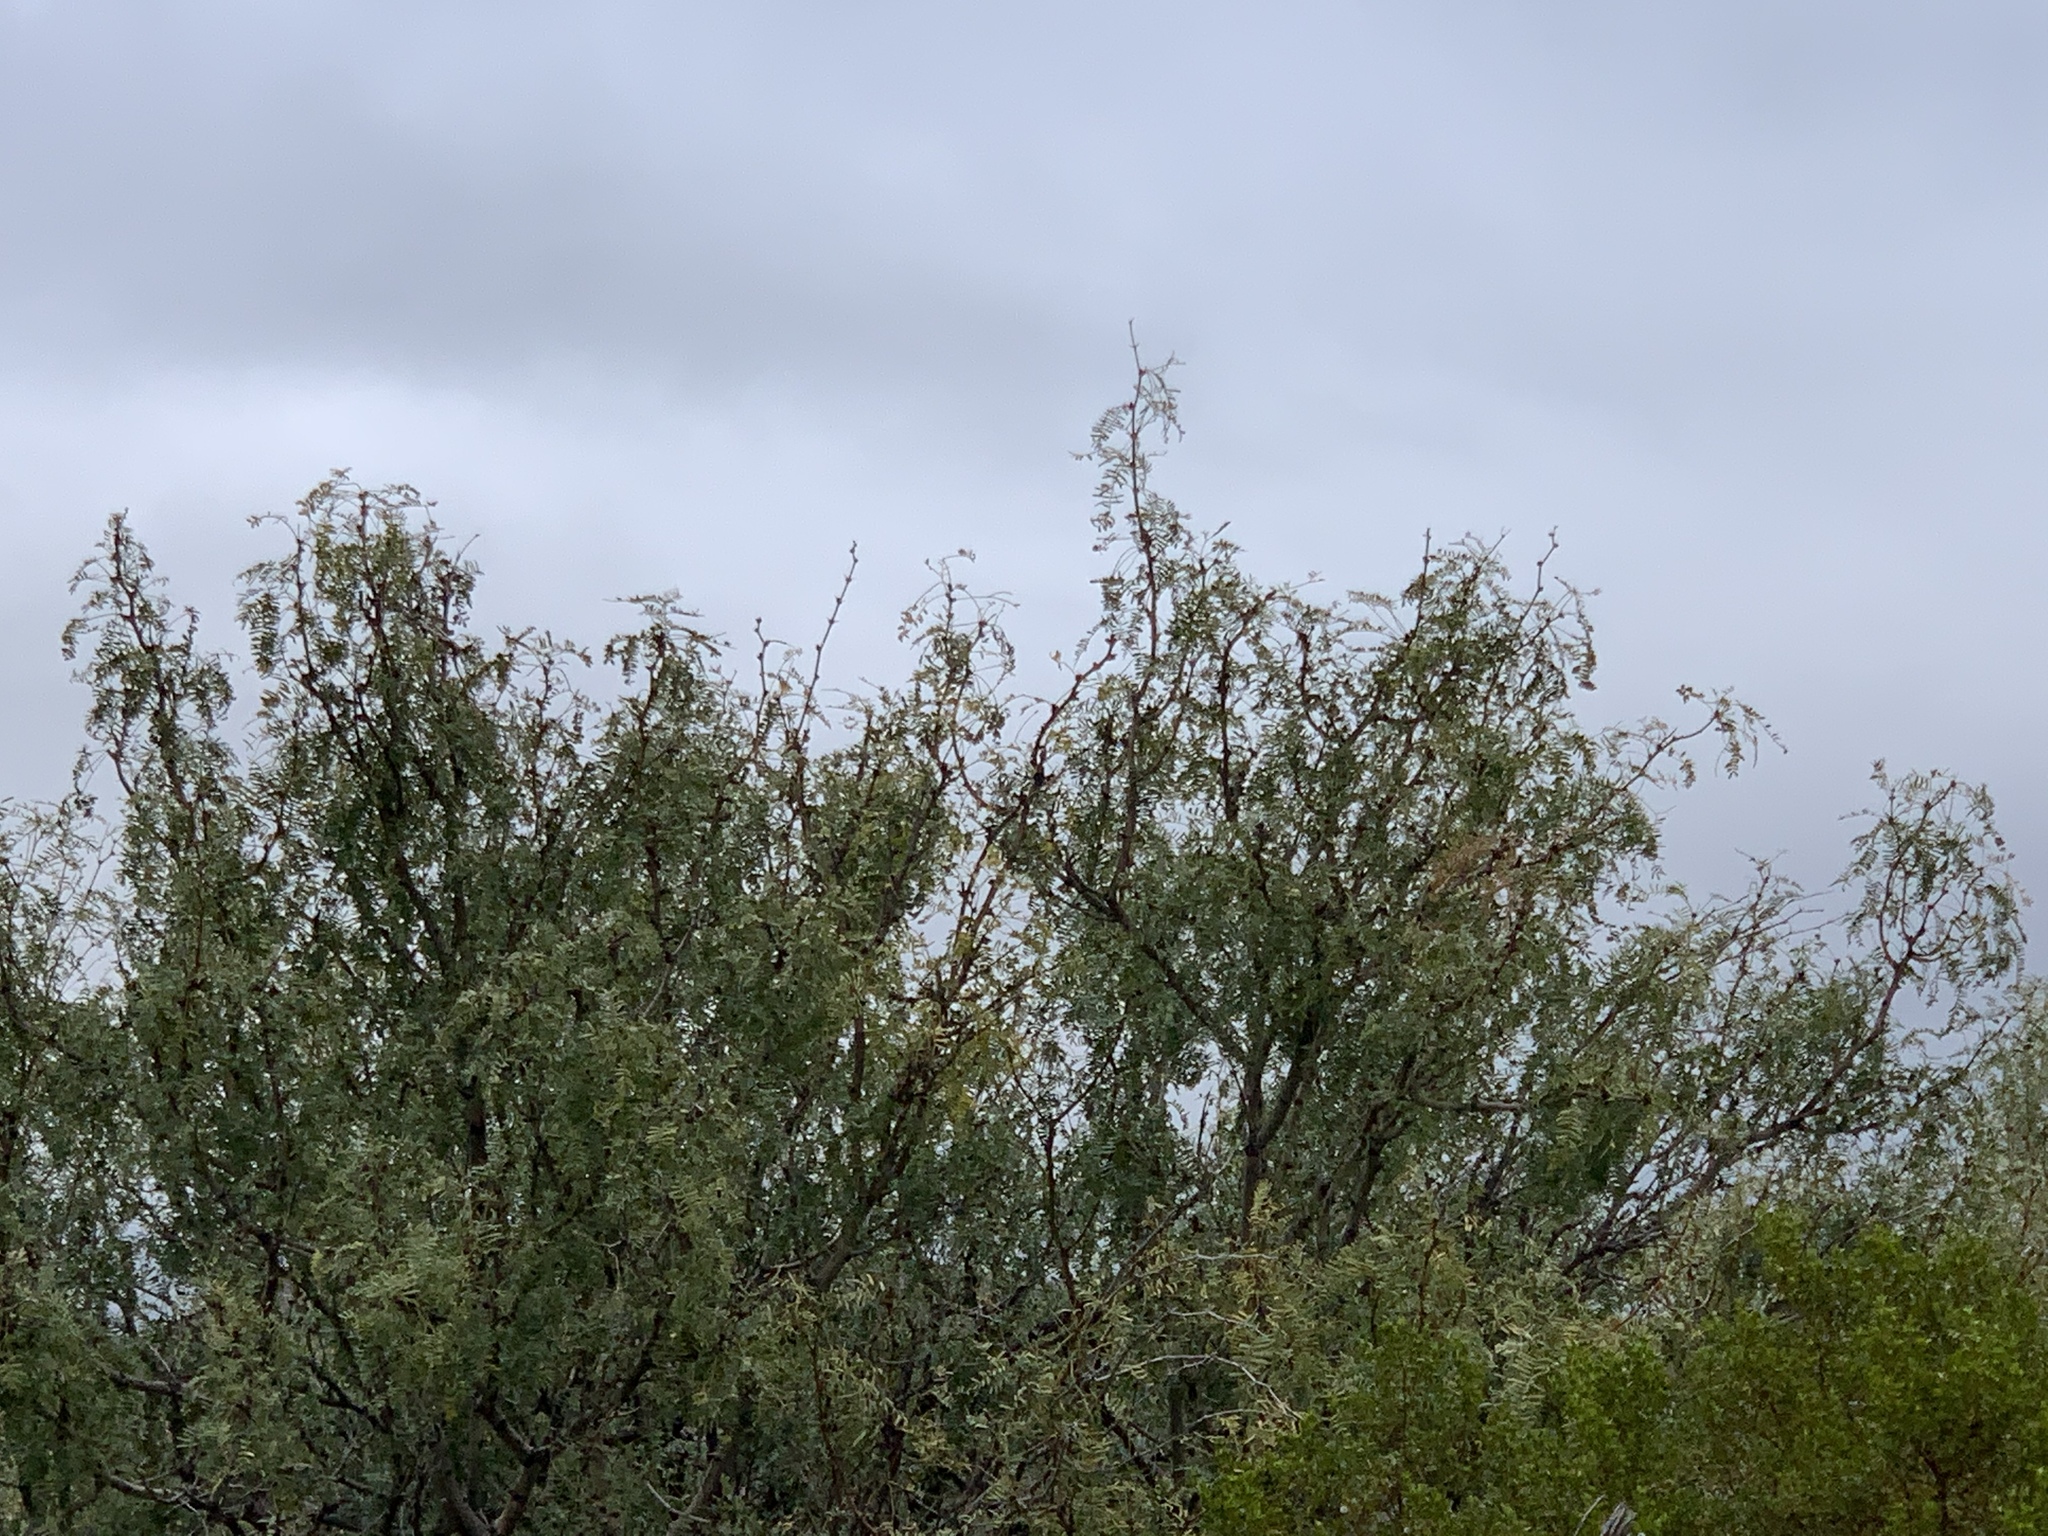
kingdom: Plantae
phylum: Tracheophyta
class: Magnoliopsida
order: Fabales
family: Fabaceae
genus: Prosopis
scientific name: Prosopis glandulosa
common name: Honey mesquite
